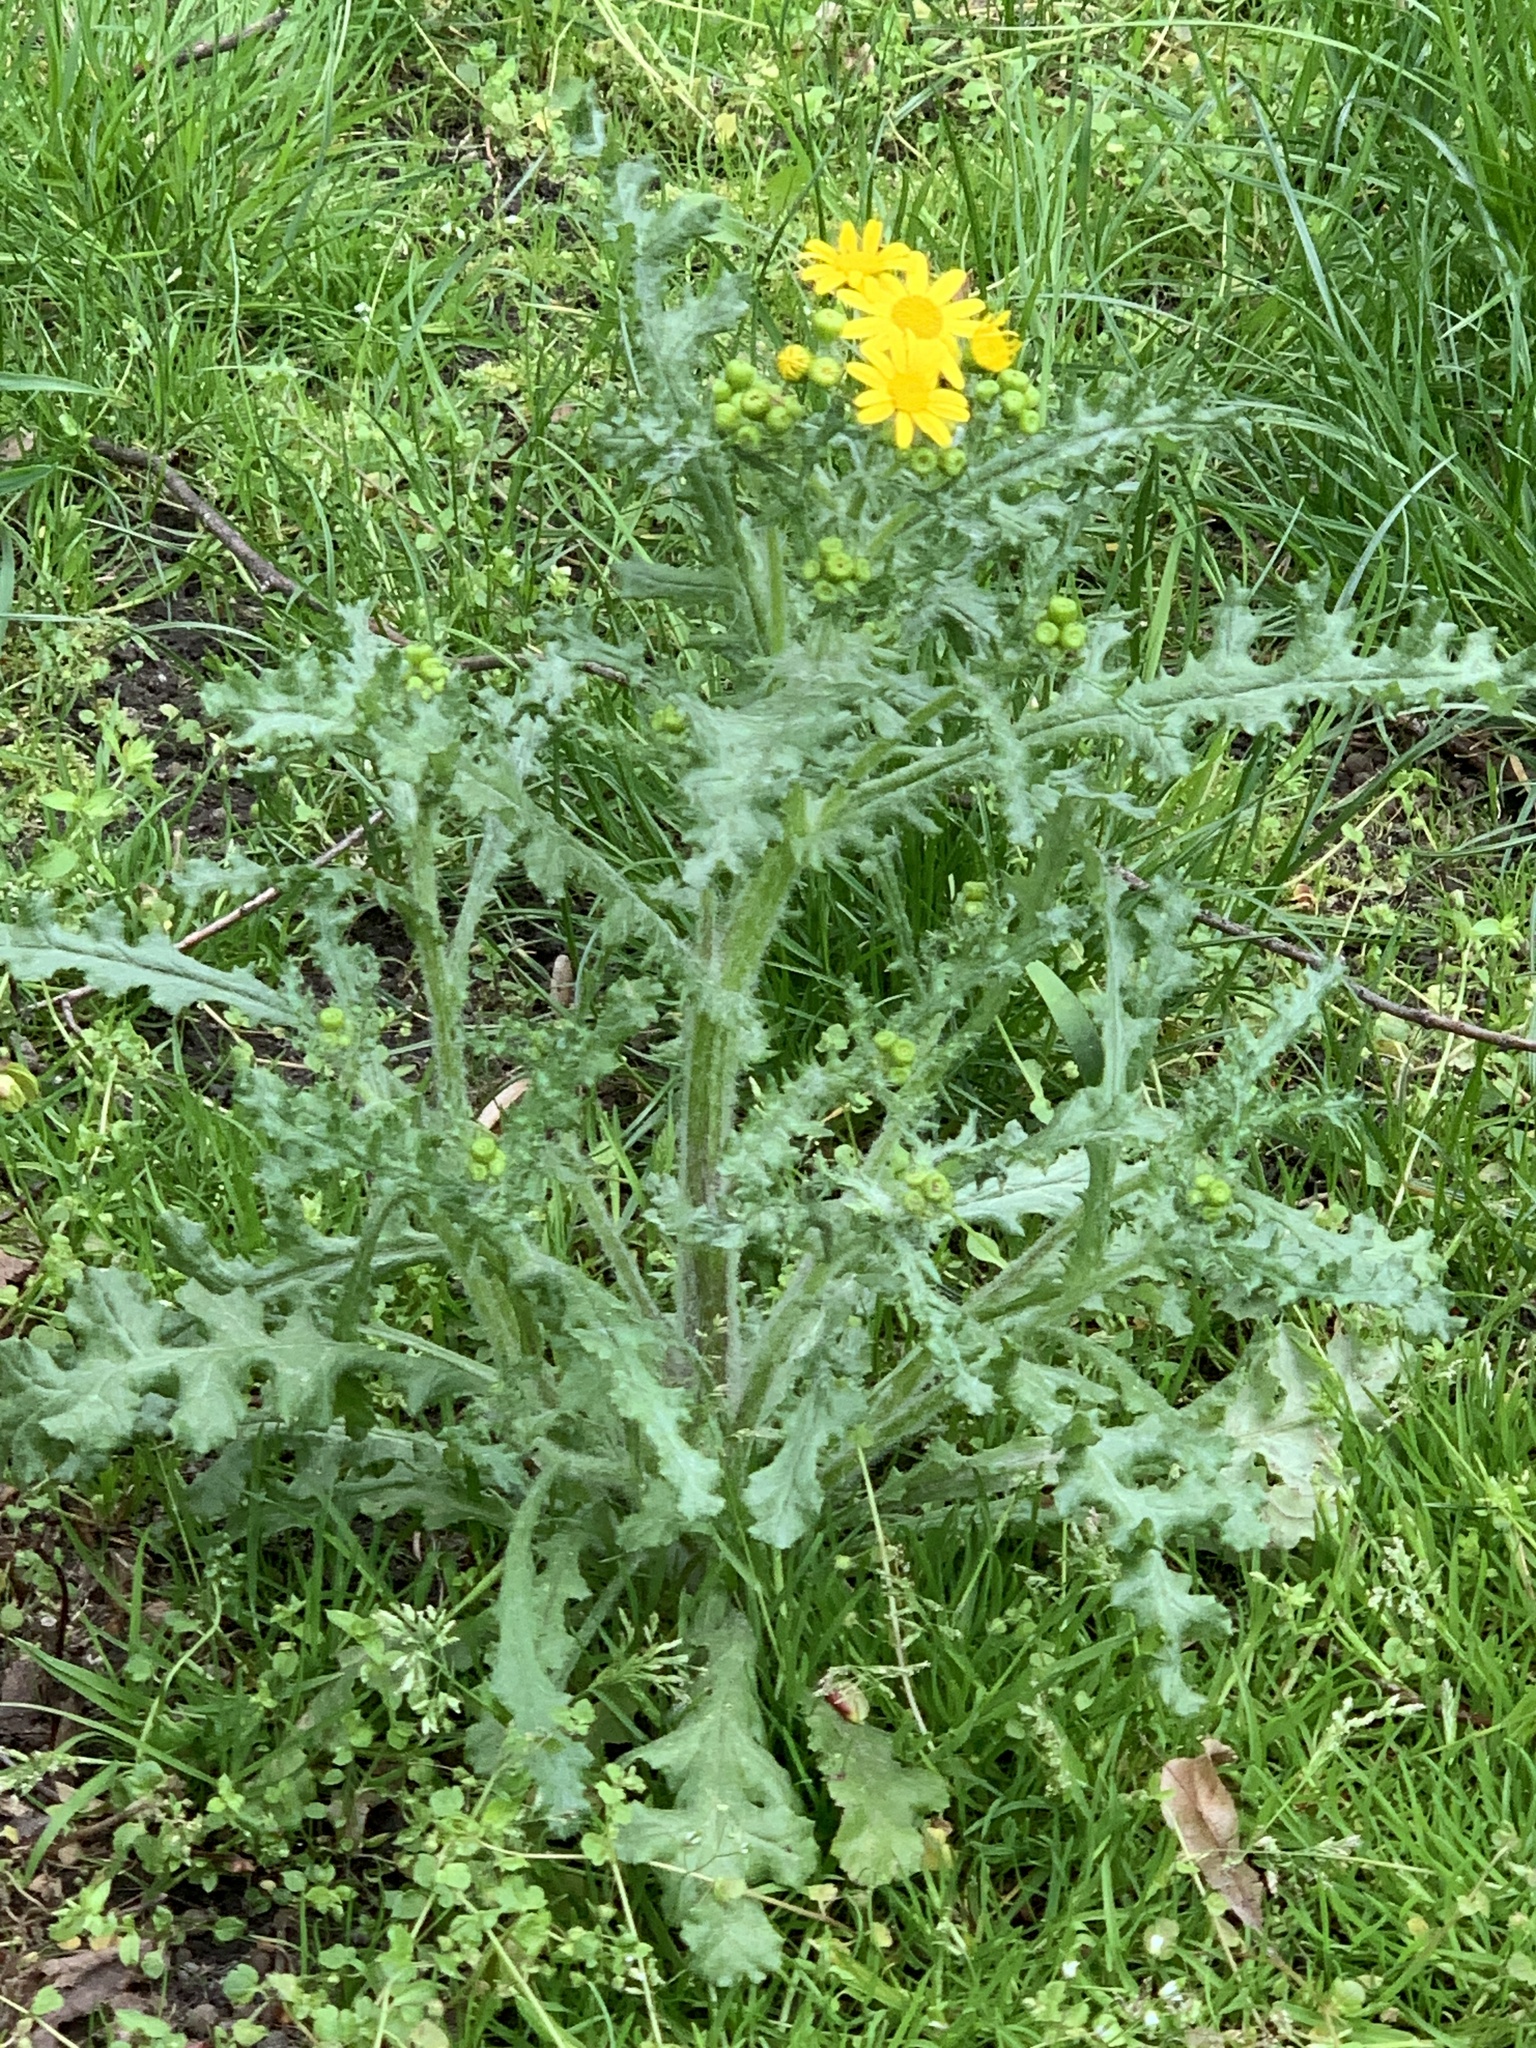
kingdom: Plantae
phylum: Tracheophyta
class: Magnoliopsida
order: Asterales
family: Asteraceae
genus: Senecio
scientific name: Senecio vernalis
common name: Eastern groundsel
